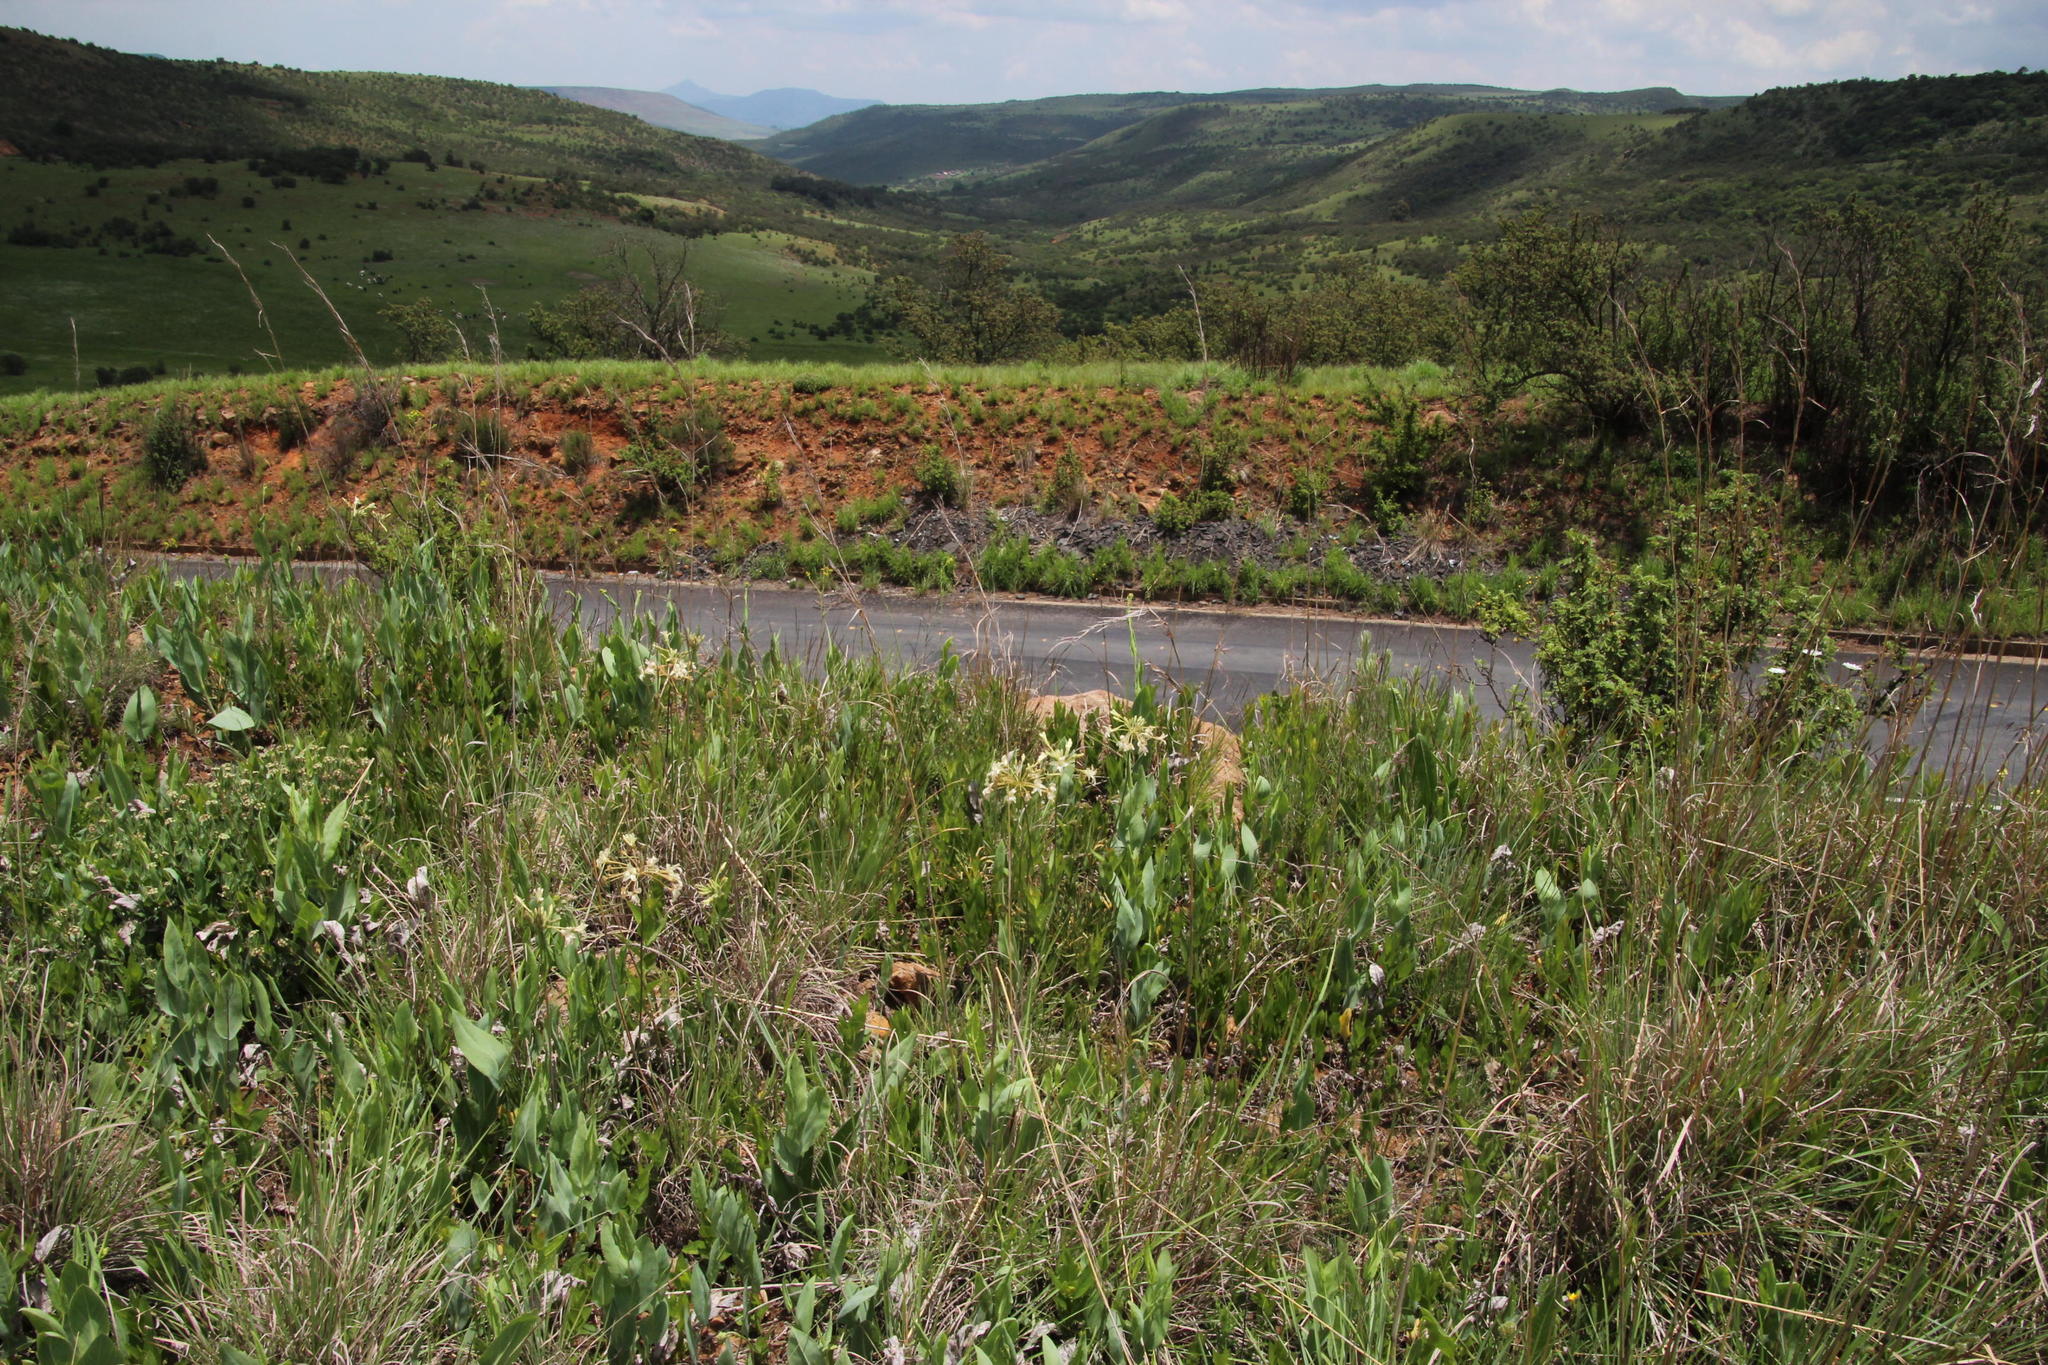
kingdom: Plantae
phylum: Tracheophyta
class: Magnoliopsida
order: Geraniales
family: Geraniaceae
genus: Pelargonium
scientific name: Pelargonium luridum
